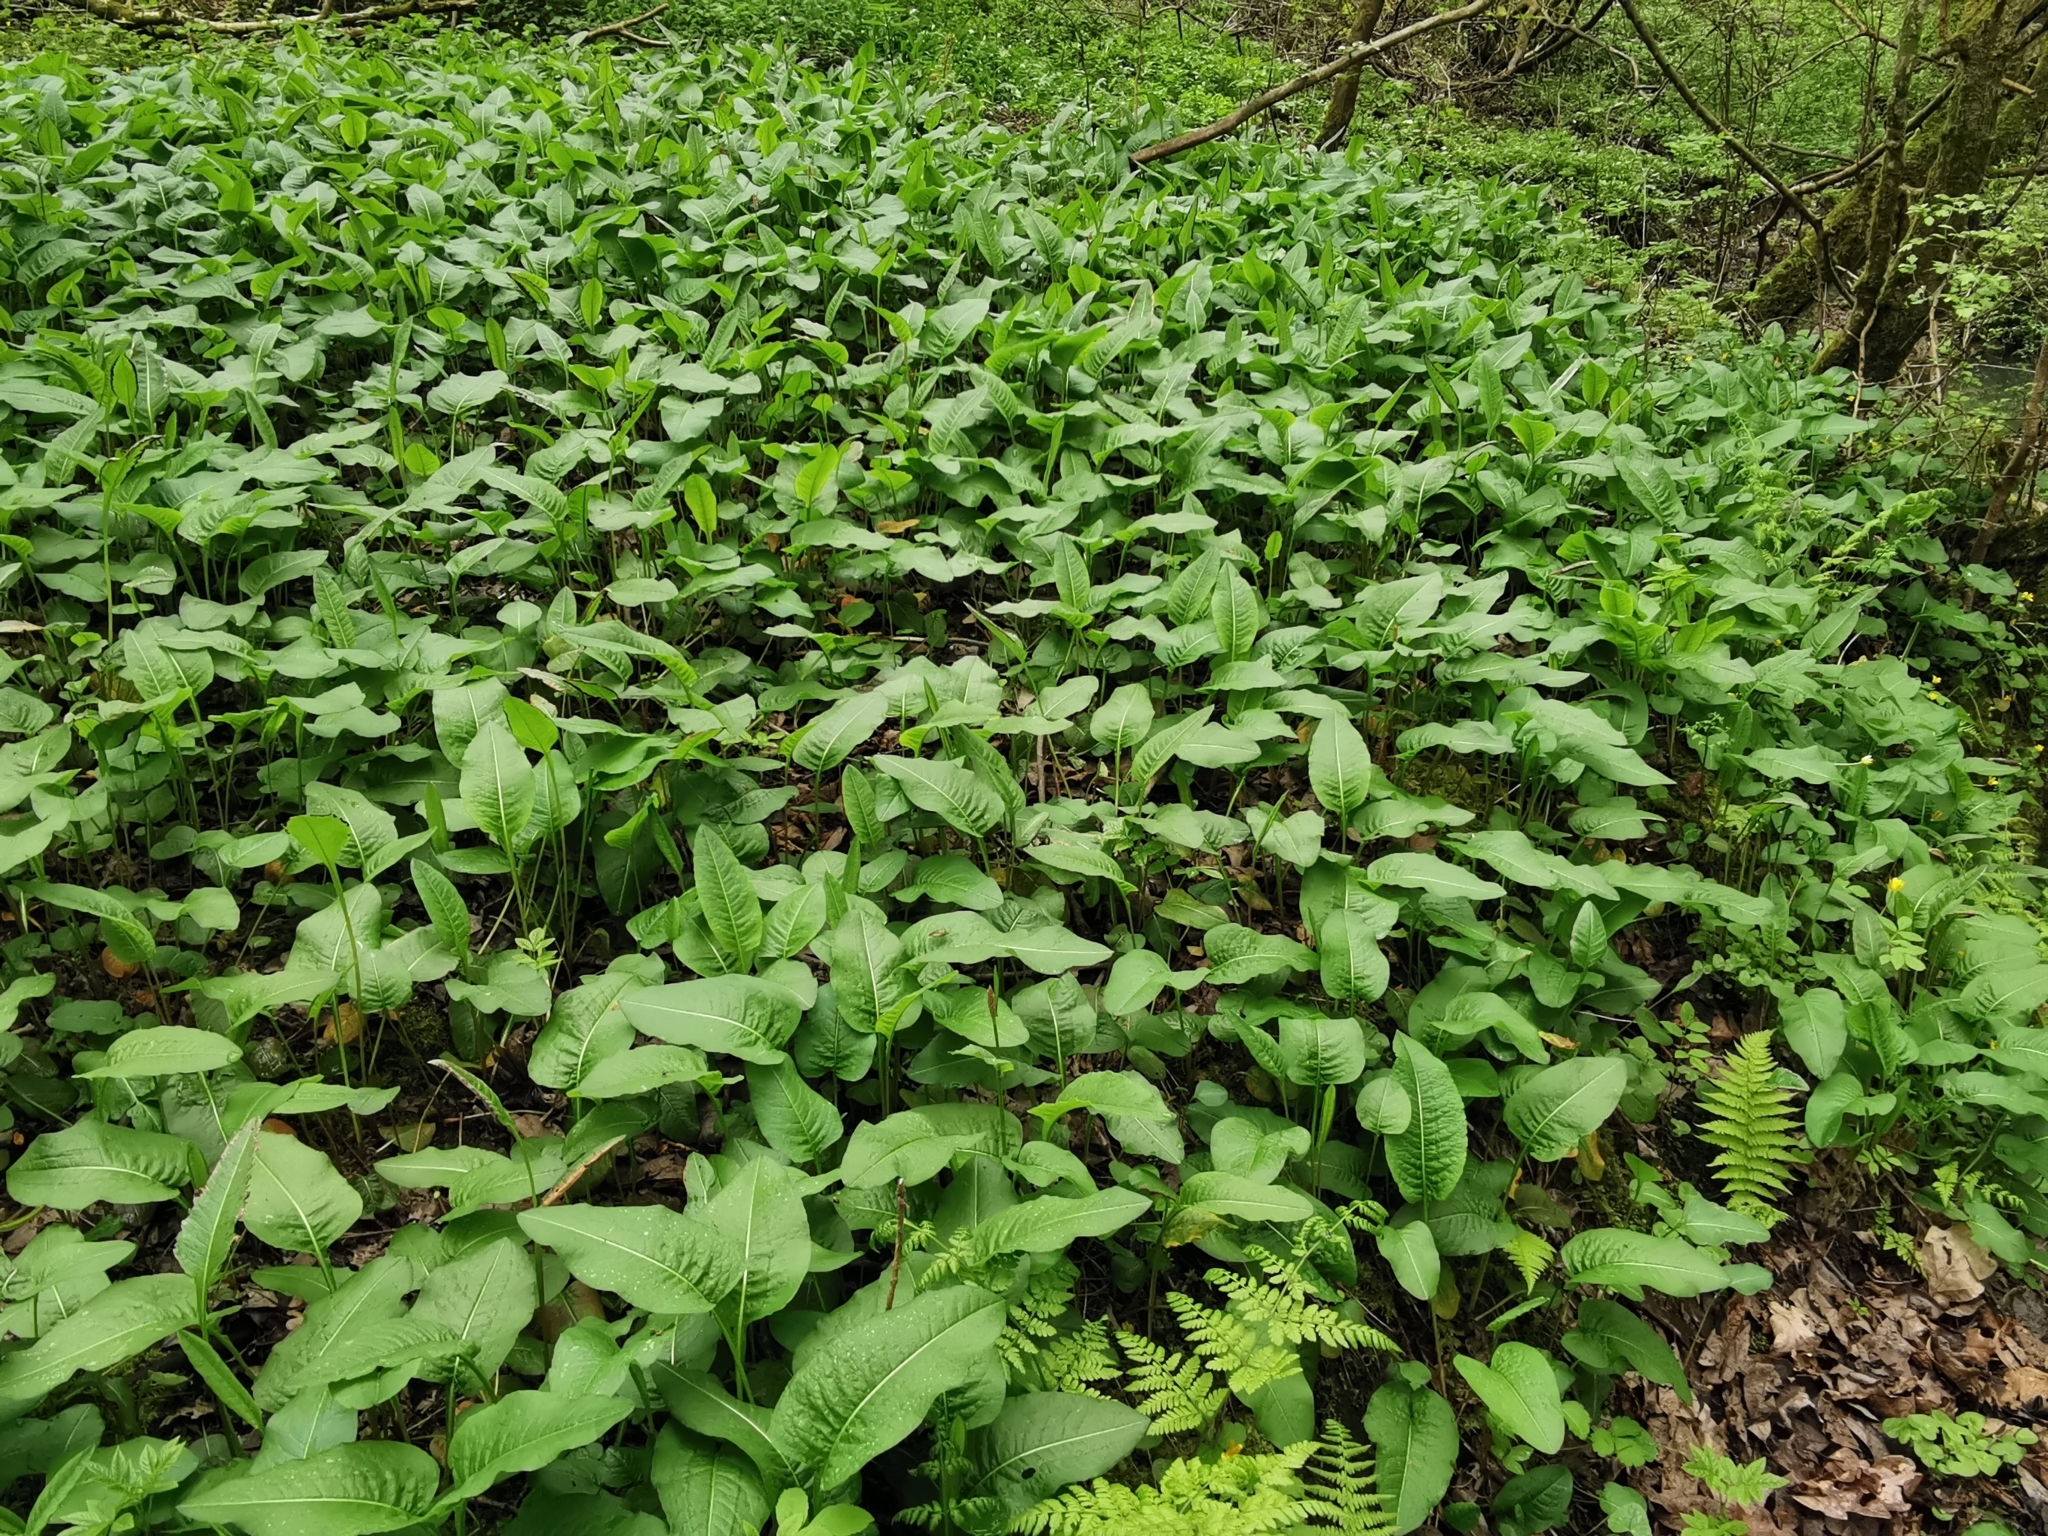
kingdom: Plantae
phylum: Tracheophyta
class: Magnoliopsida
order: Caryophyllales
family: Polygonaceae
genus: Bistorta
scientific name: Bistorta officinalis
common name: Common bistort
